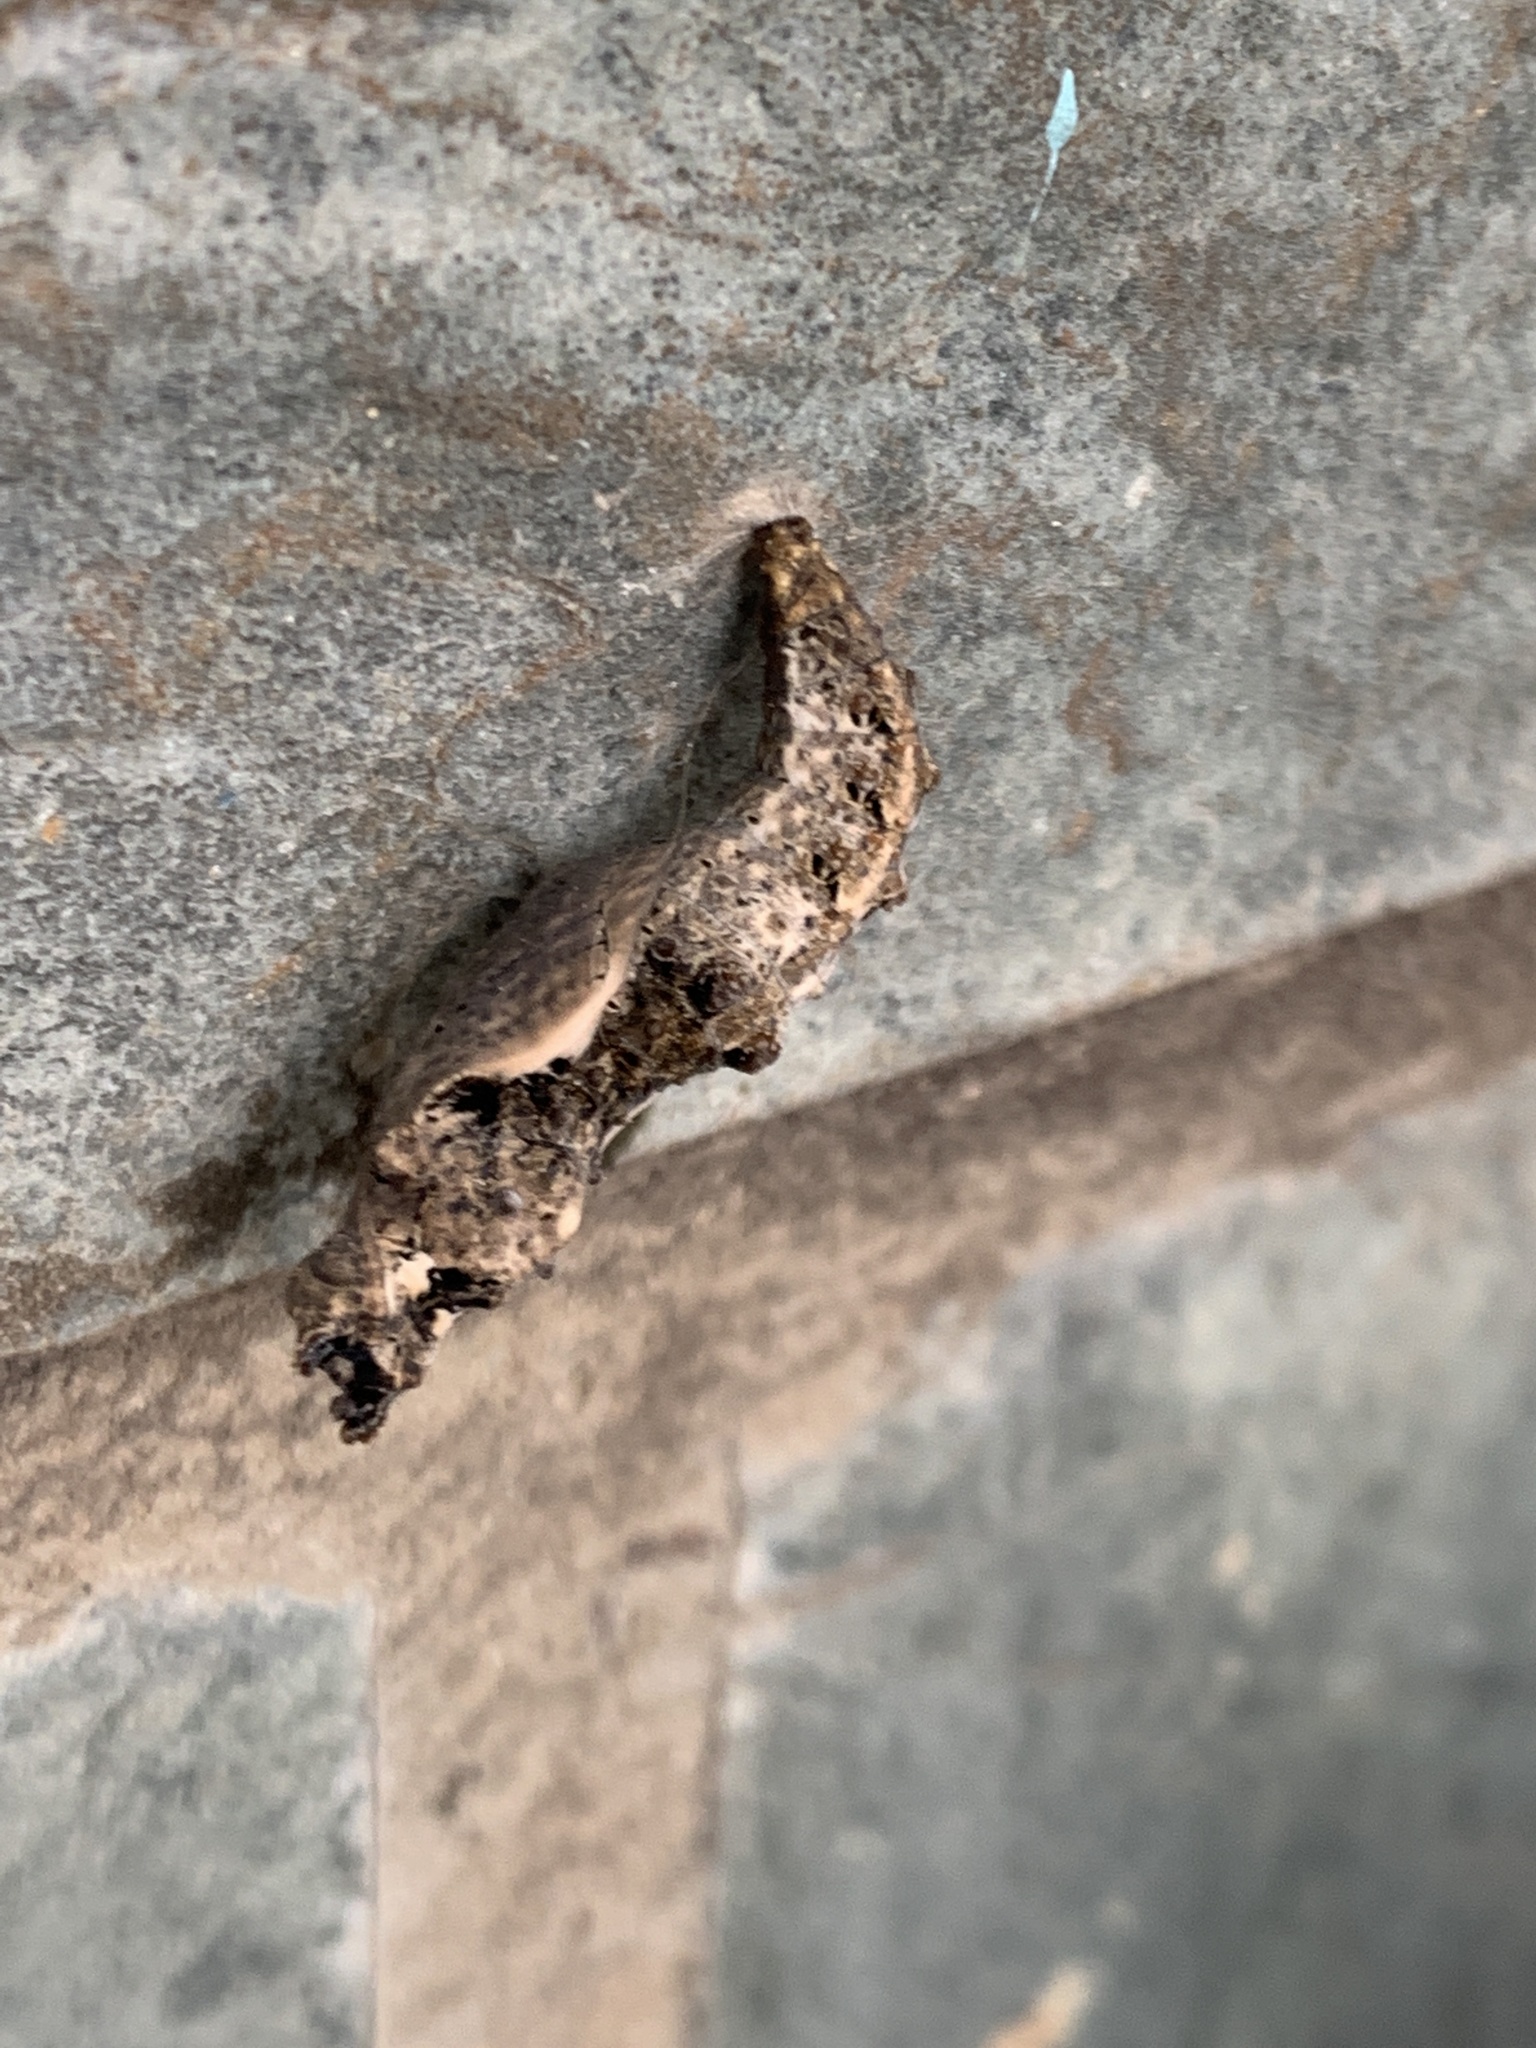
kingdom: Animalia
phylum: Arthropoda
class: Insecta
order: Lepidoptera
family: Nymphalidae
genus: Dione
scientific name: Dione vanillae
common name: Gulf fritillary
